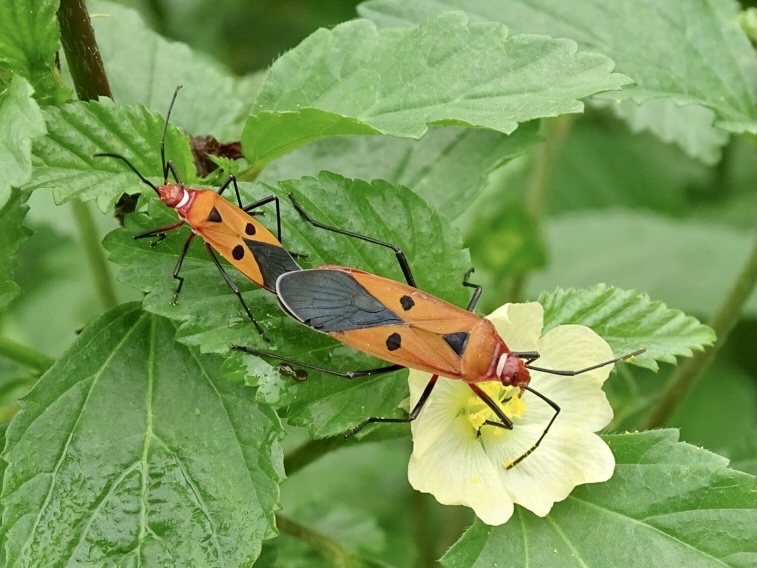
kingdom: Animalia
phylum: Arthropoda
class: Insecta
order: Hemiptera
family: Pyrrhocoridae
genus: Dysdercus
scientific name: Dysdercus cingulatus
